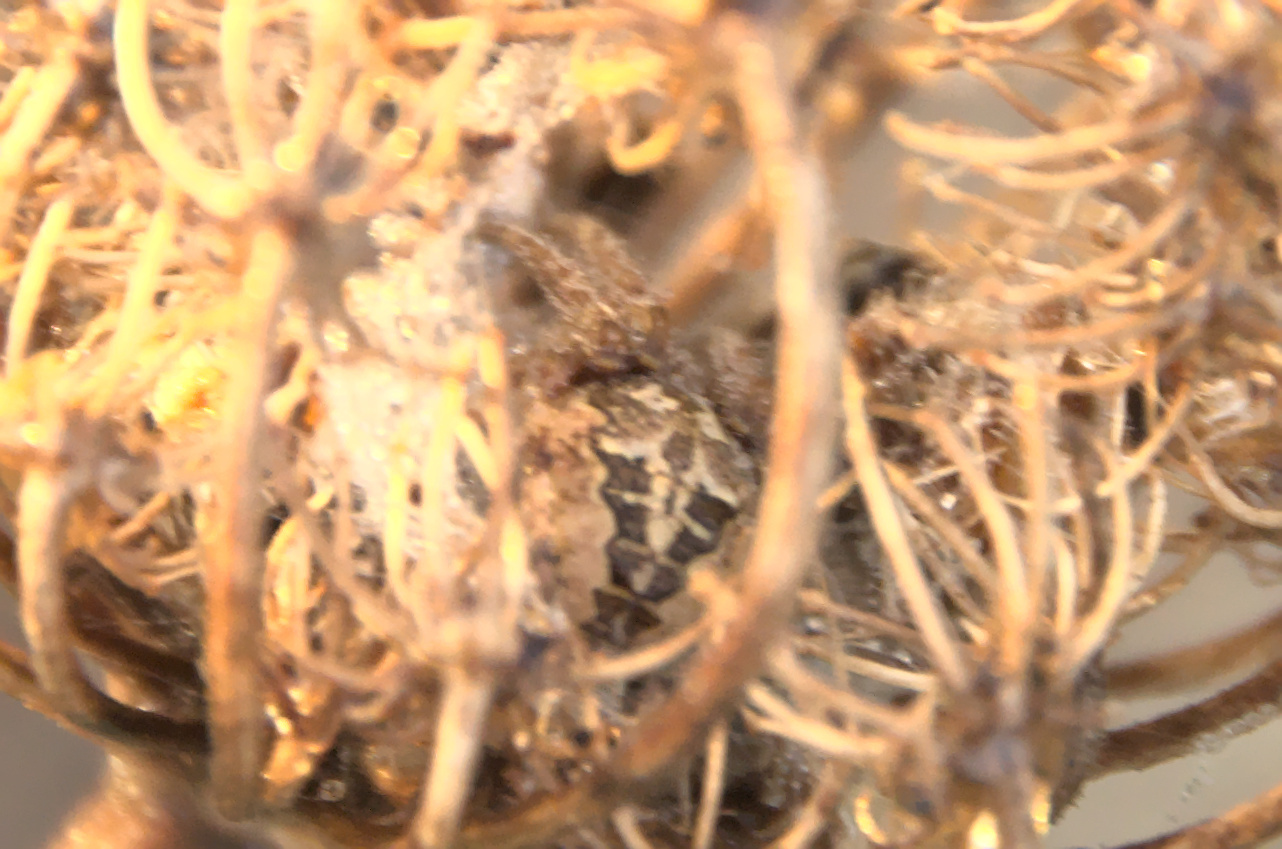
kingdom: Animalia
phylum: Arthropoda
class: Arachnida
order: Araneae
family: Araneidae
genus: Agalenatea
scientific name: Agalenatea redii
